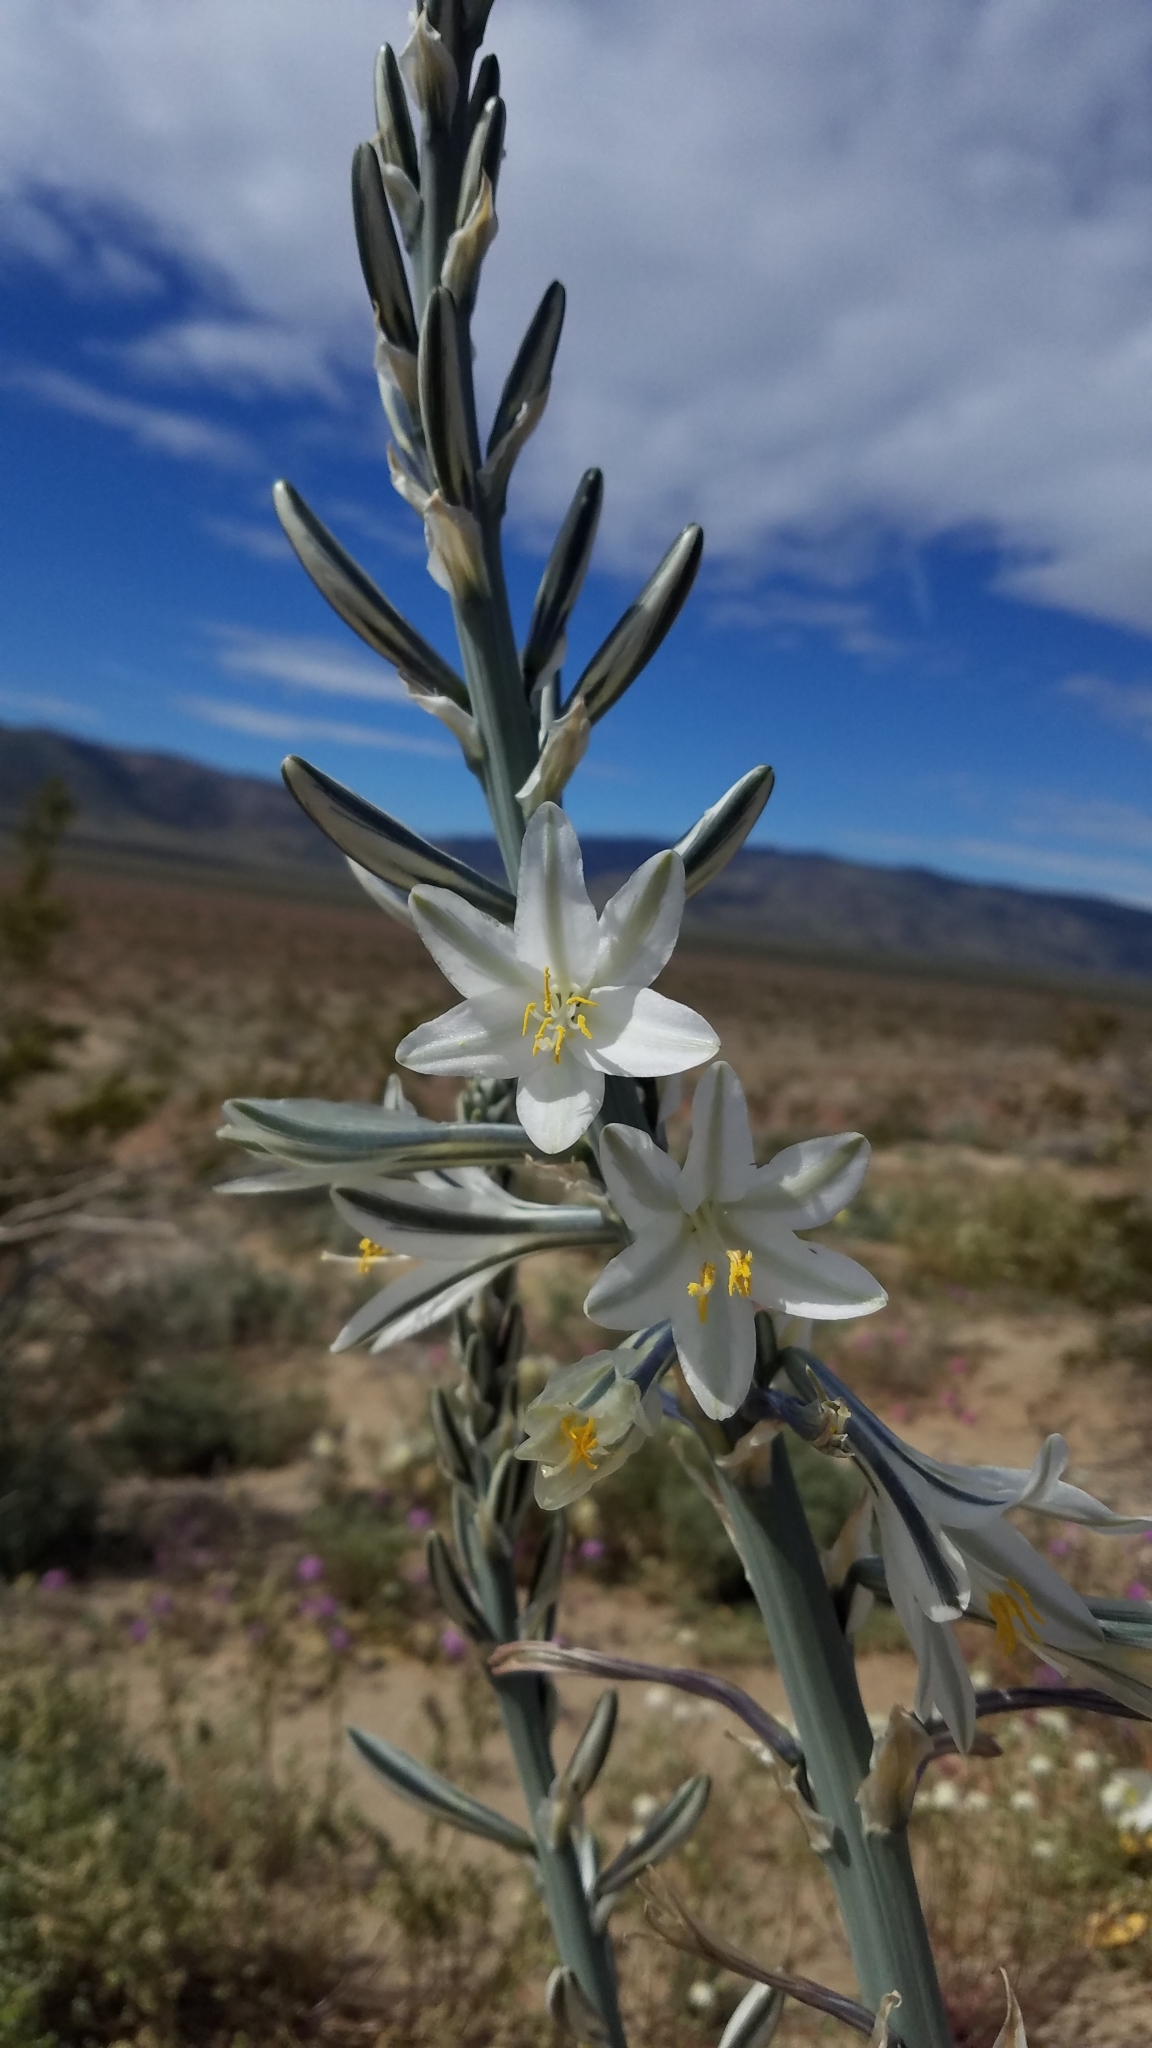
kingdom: Plantae
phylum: Tracheophyta
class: Liliopsida
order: Asparagales
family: Asparagaceae
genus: Hesperocallis
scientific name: Hesperocallis undulata
